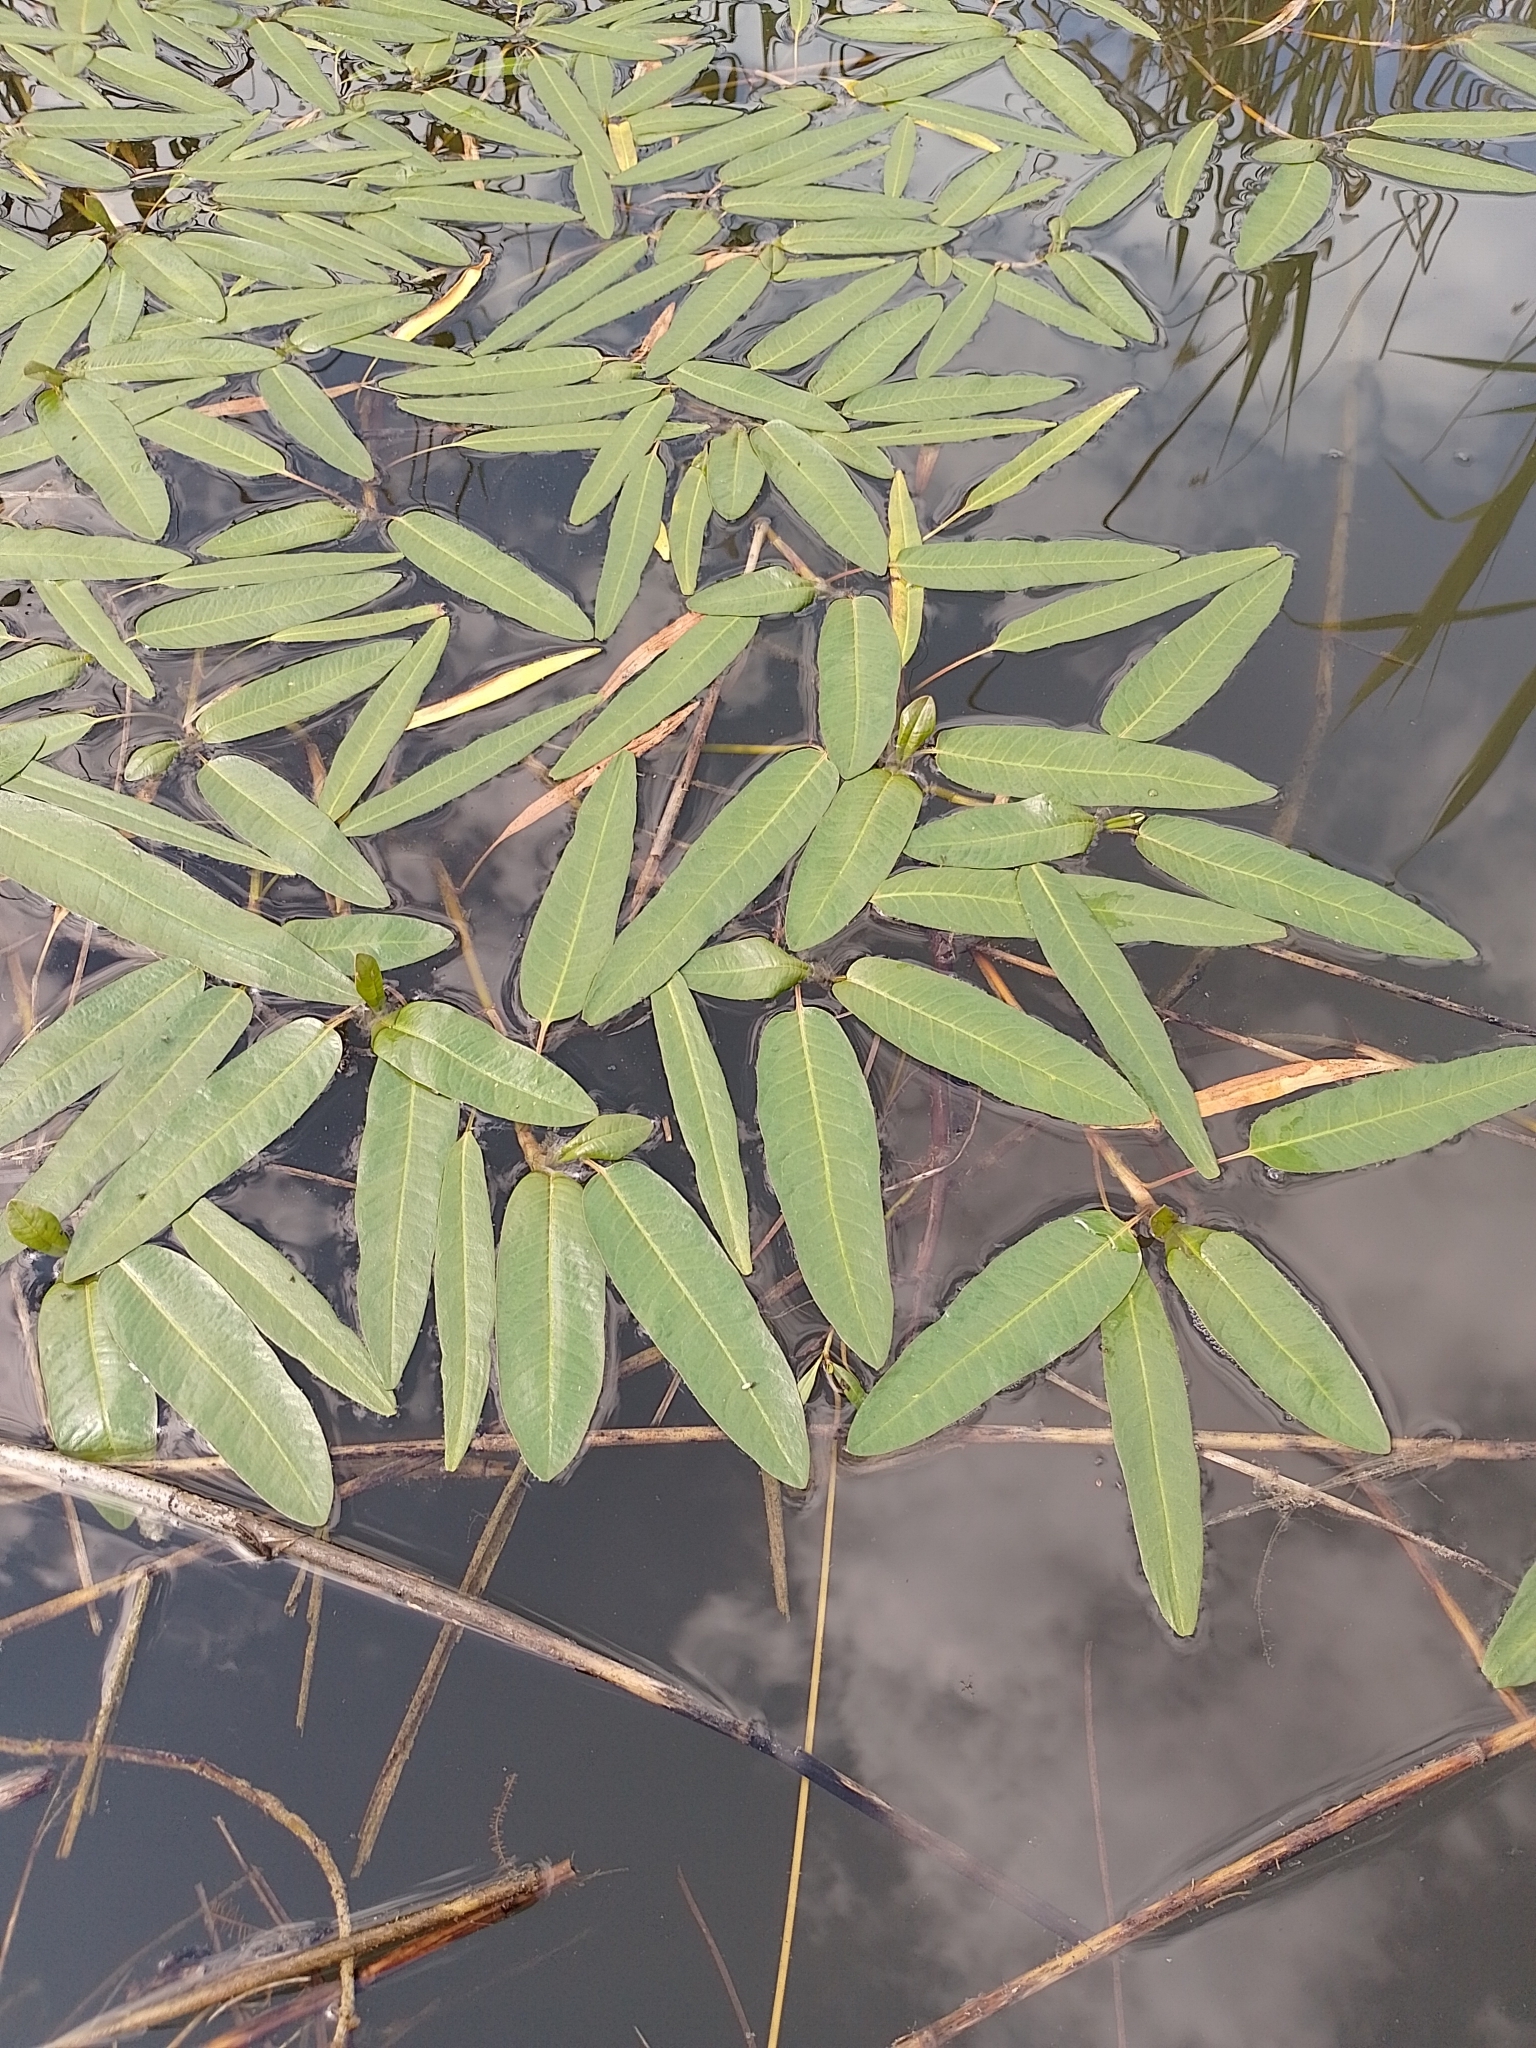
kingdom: Plantae
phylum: Tracheophyta
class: Magnoliopsida
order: Caryophyllales
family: Polygonaceae
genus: Persicaria
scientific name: Persicaria amphibia
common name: Amphibious bistort
